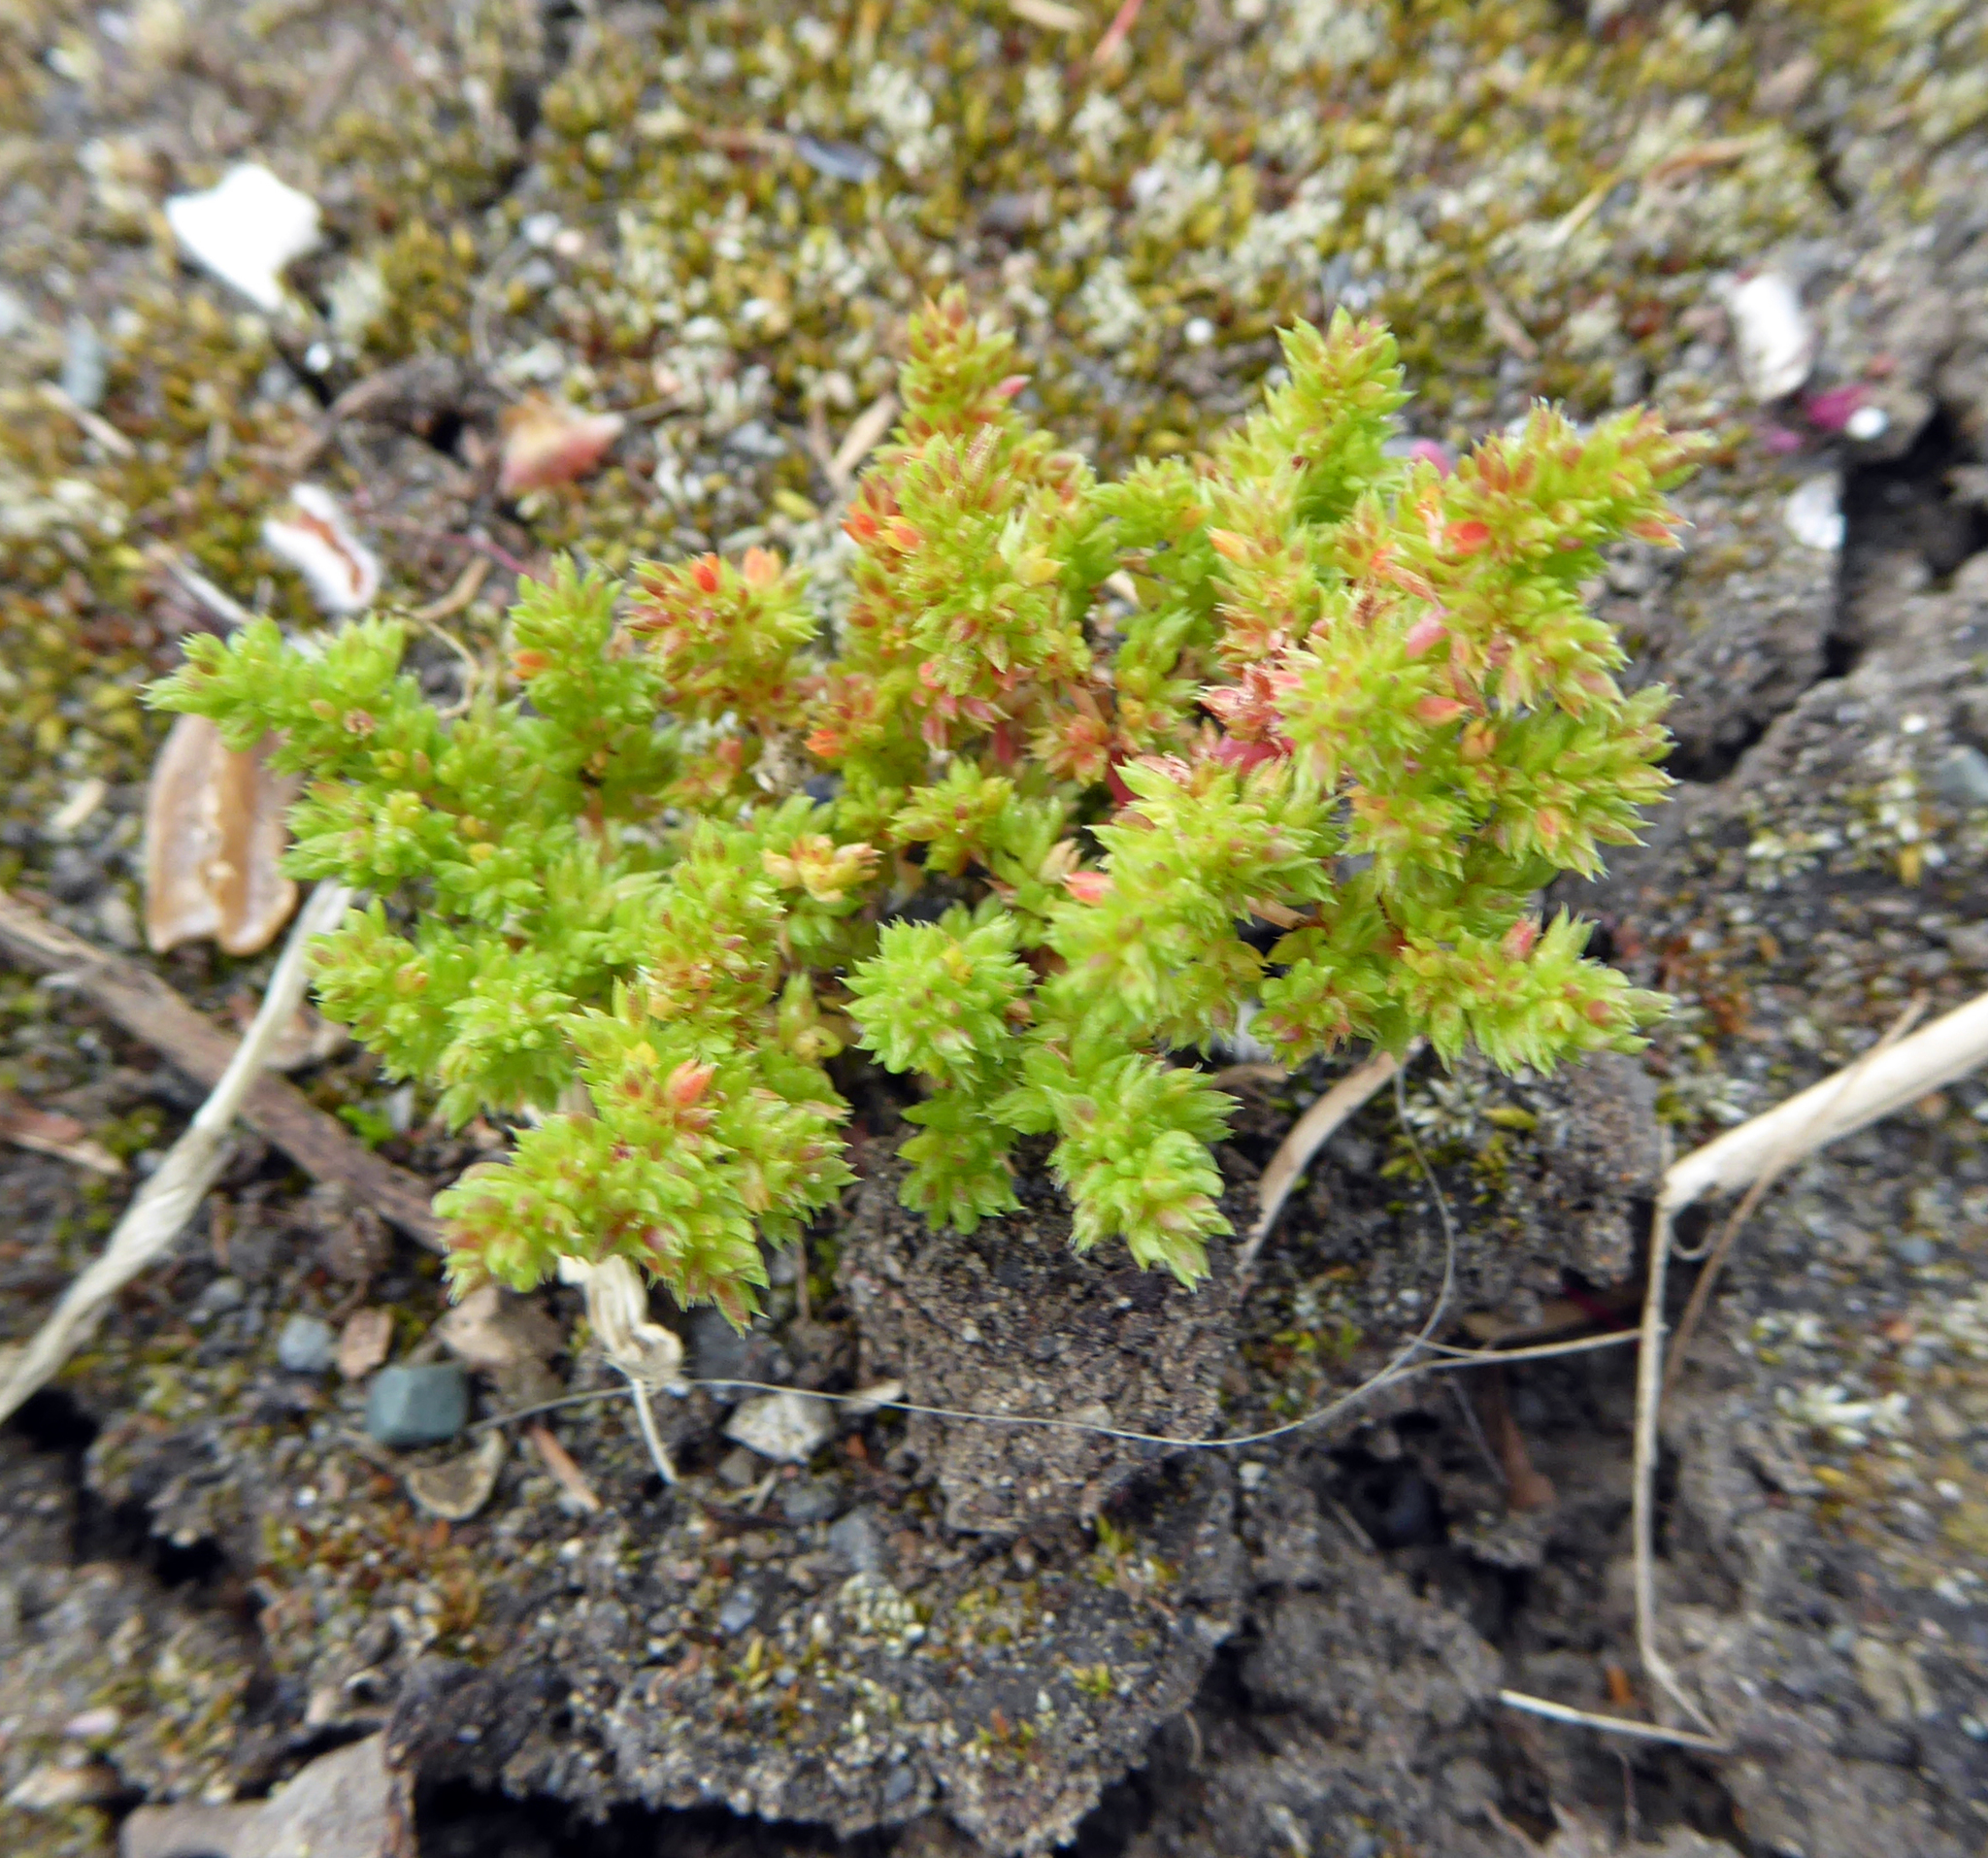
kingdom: Plantae
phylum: Tracheophyta
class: Magnoliopsida
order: Saxifragales
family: Crassulaceae
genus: Crassula
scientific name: Crassula alata
